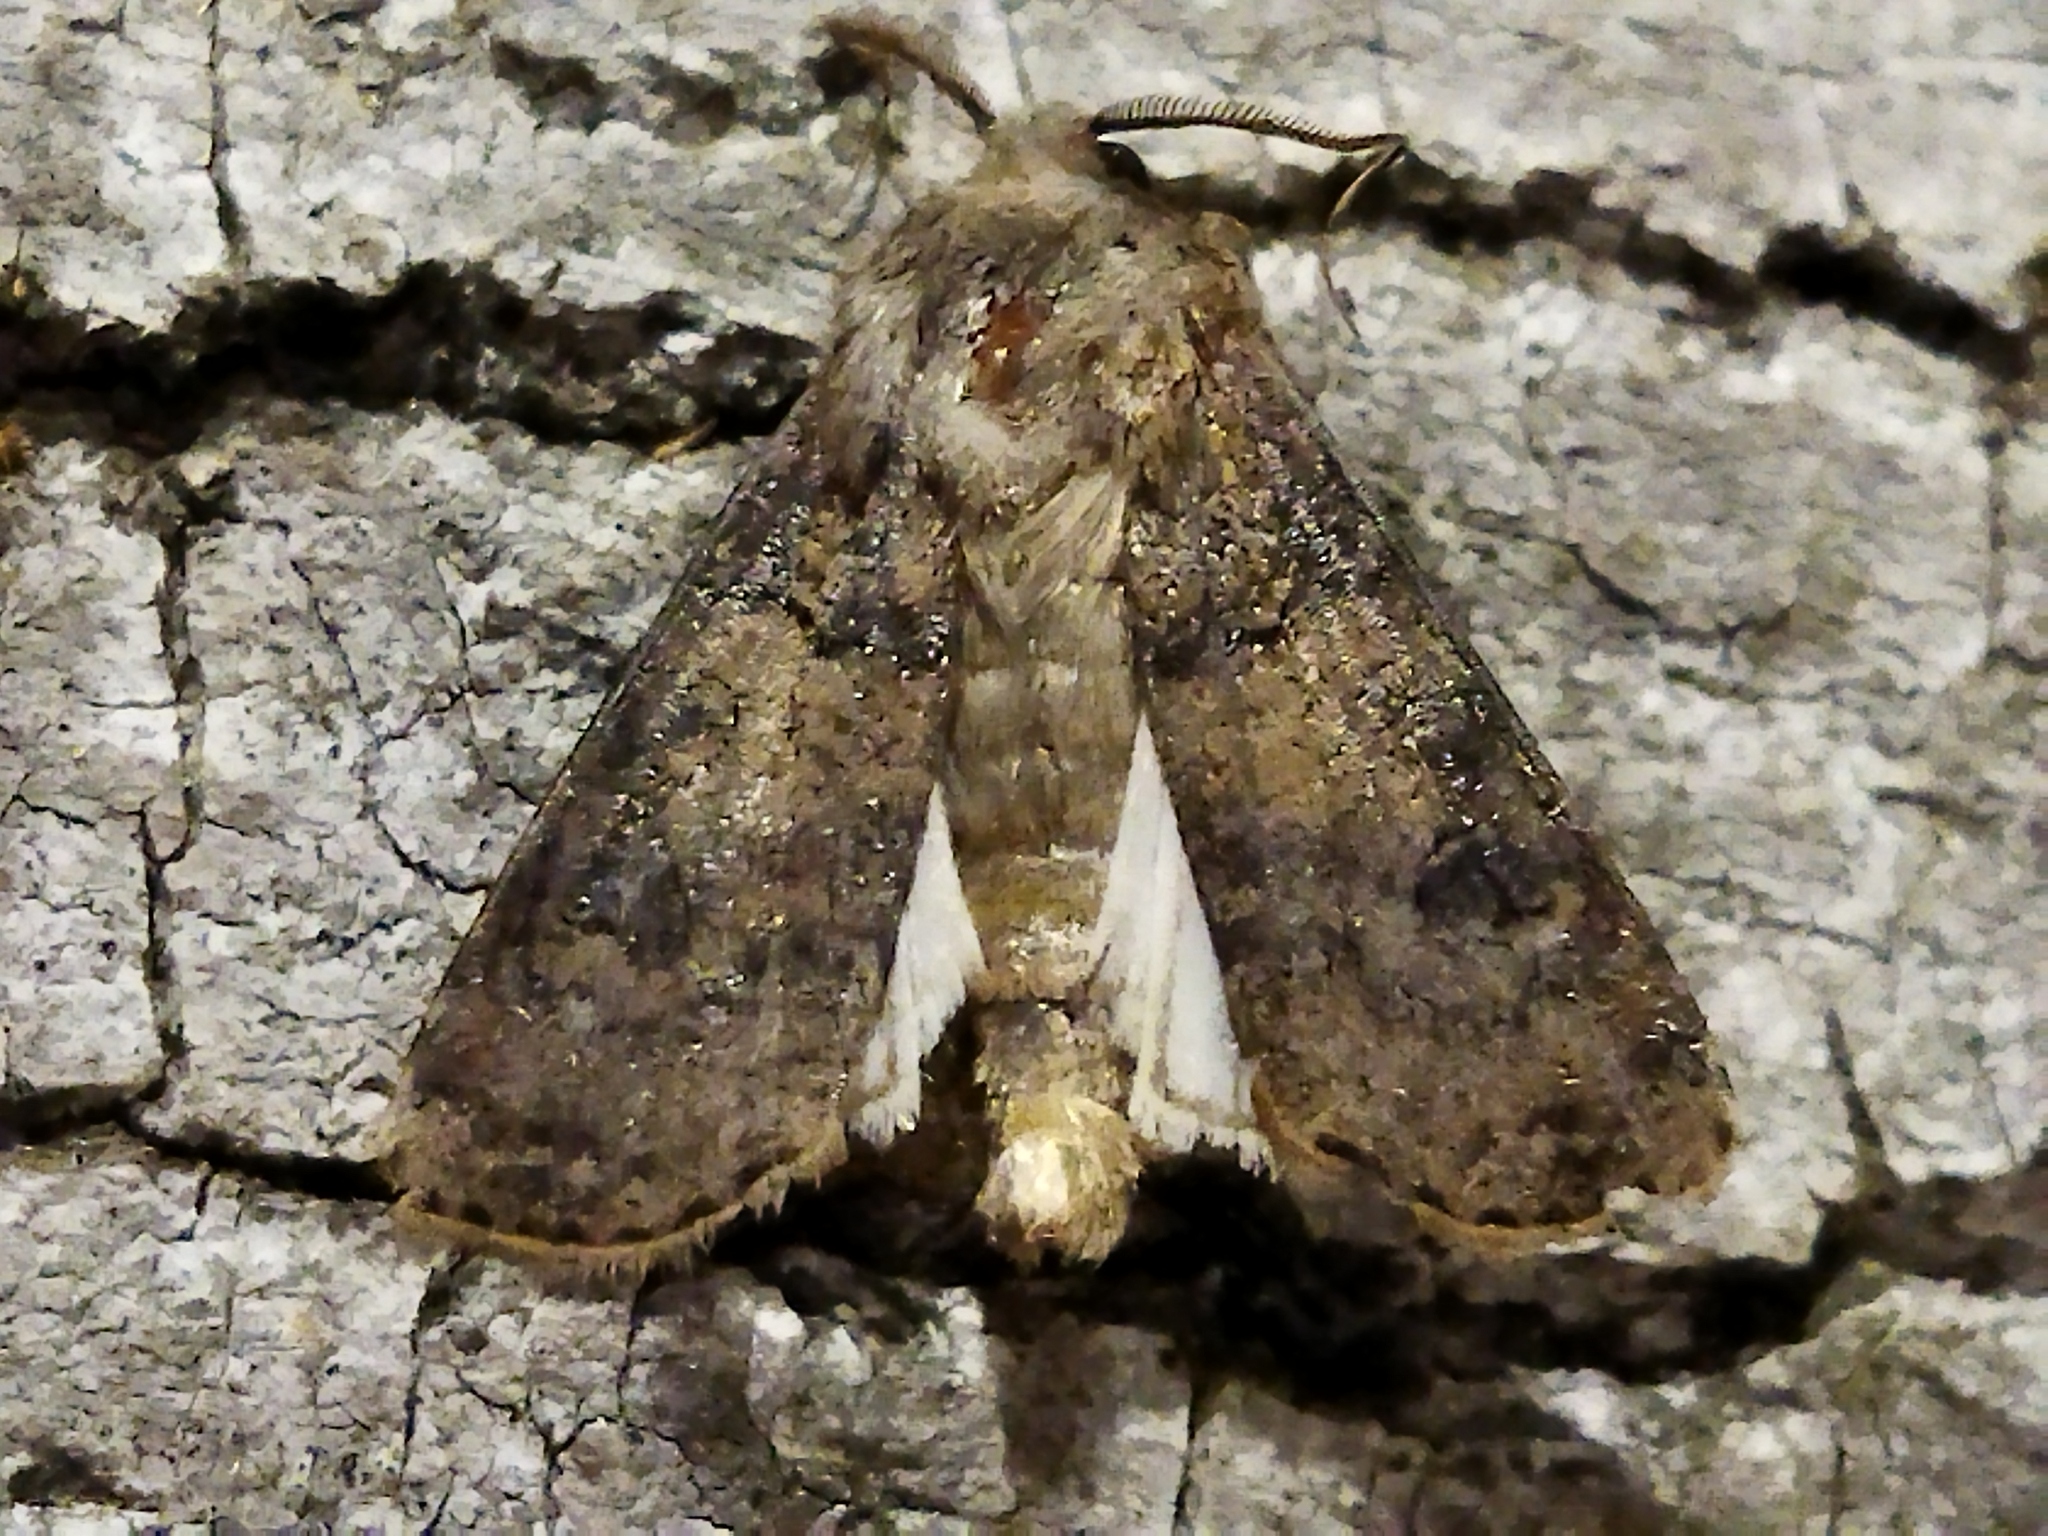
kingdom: Animalia
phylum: Arthropoda
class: Insecta
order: Lepidoptera
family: Noctuidae
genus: Agrotis
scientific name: Agrotis segetum
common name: Turnip moth
